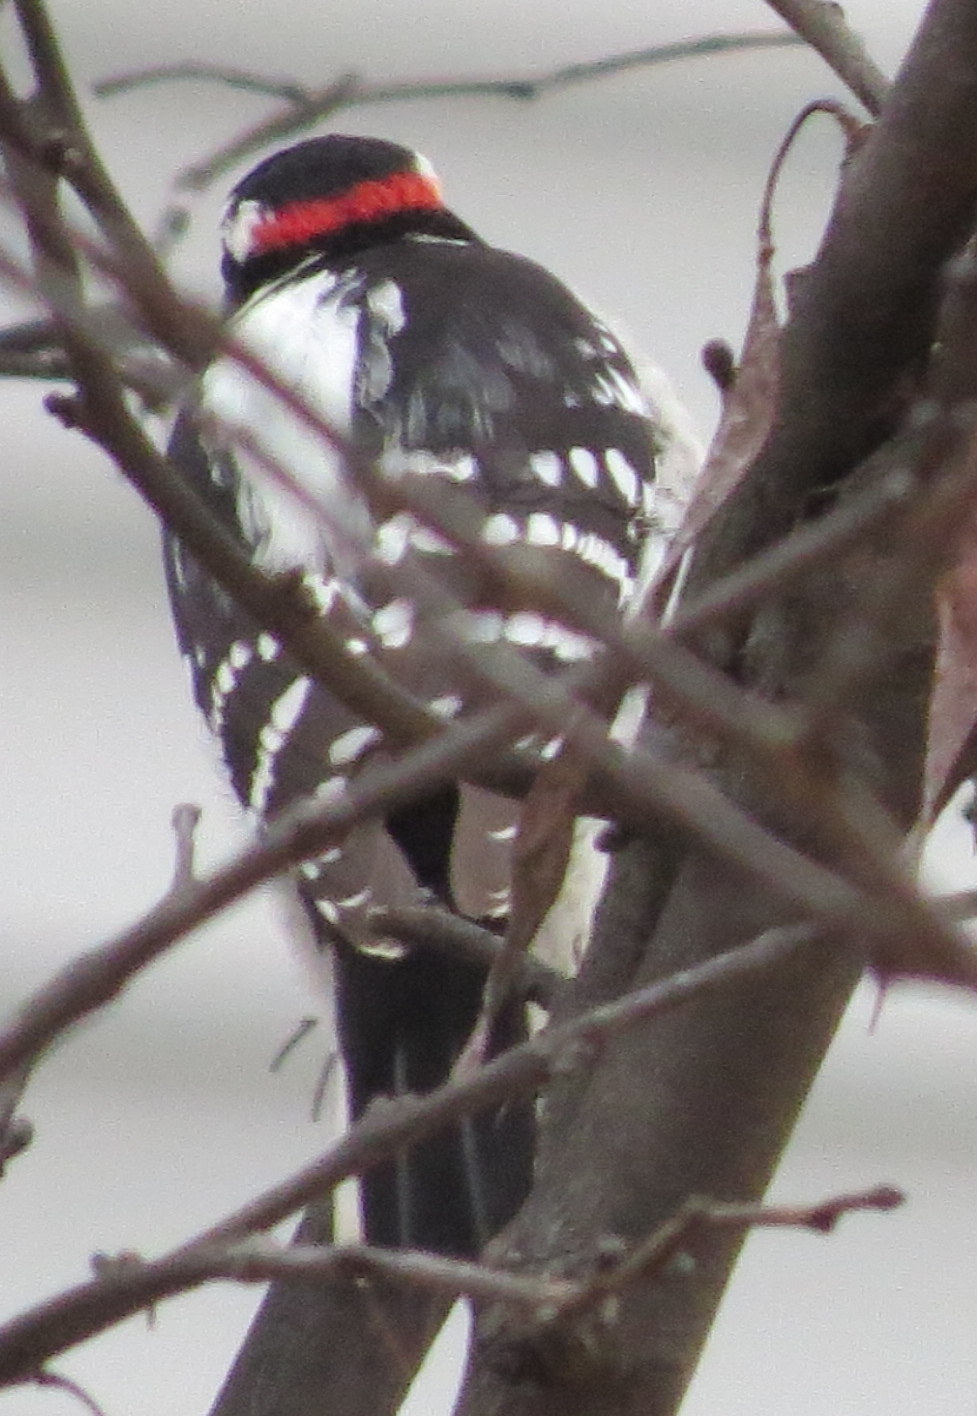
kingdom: Animalia
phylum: Chordata
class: Aves
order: Piciformes
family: Picidae
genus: Dryobates
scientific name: Dryobates pubescens
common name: Downy woodpecker
